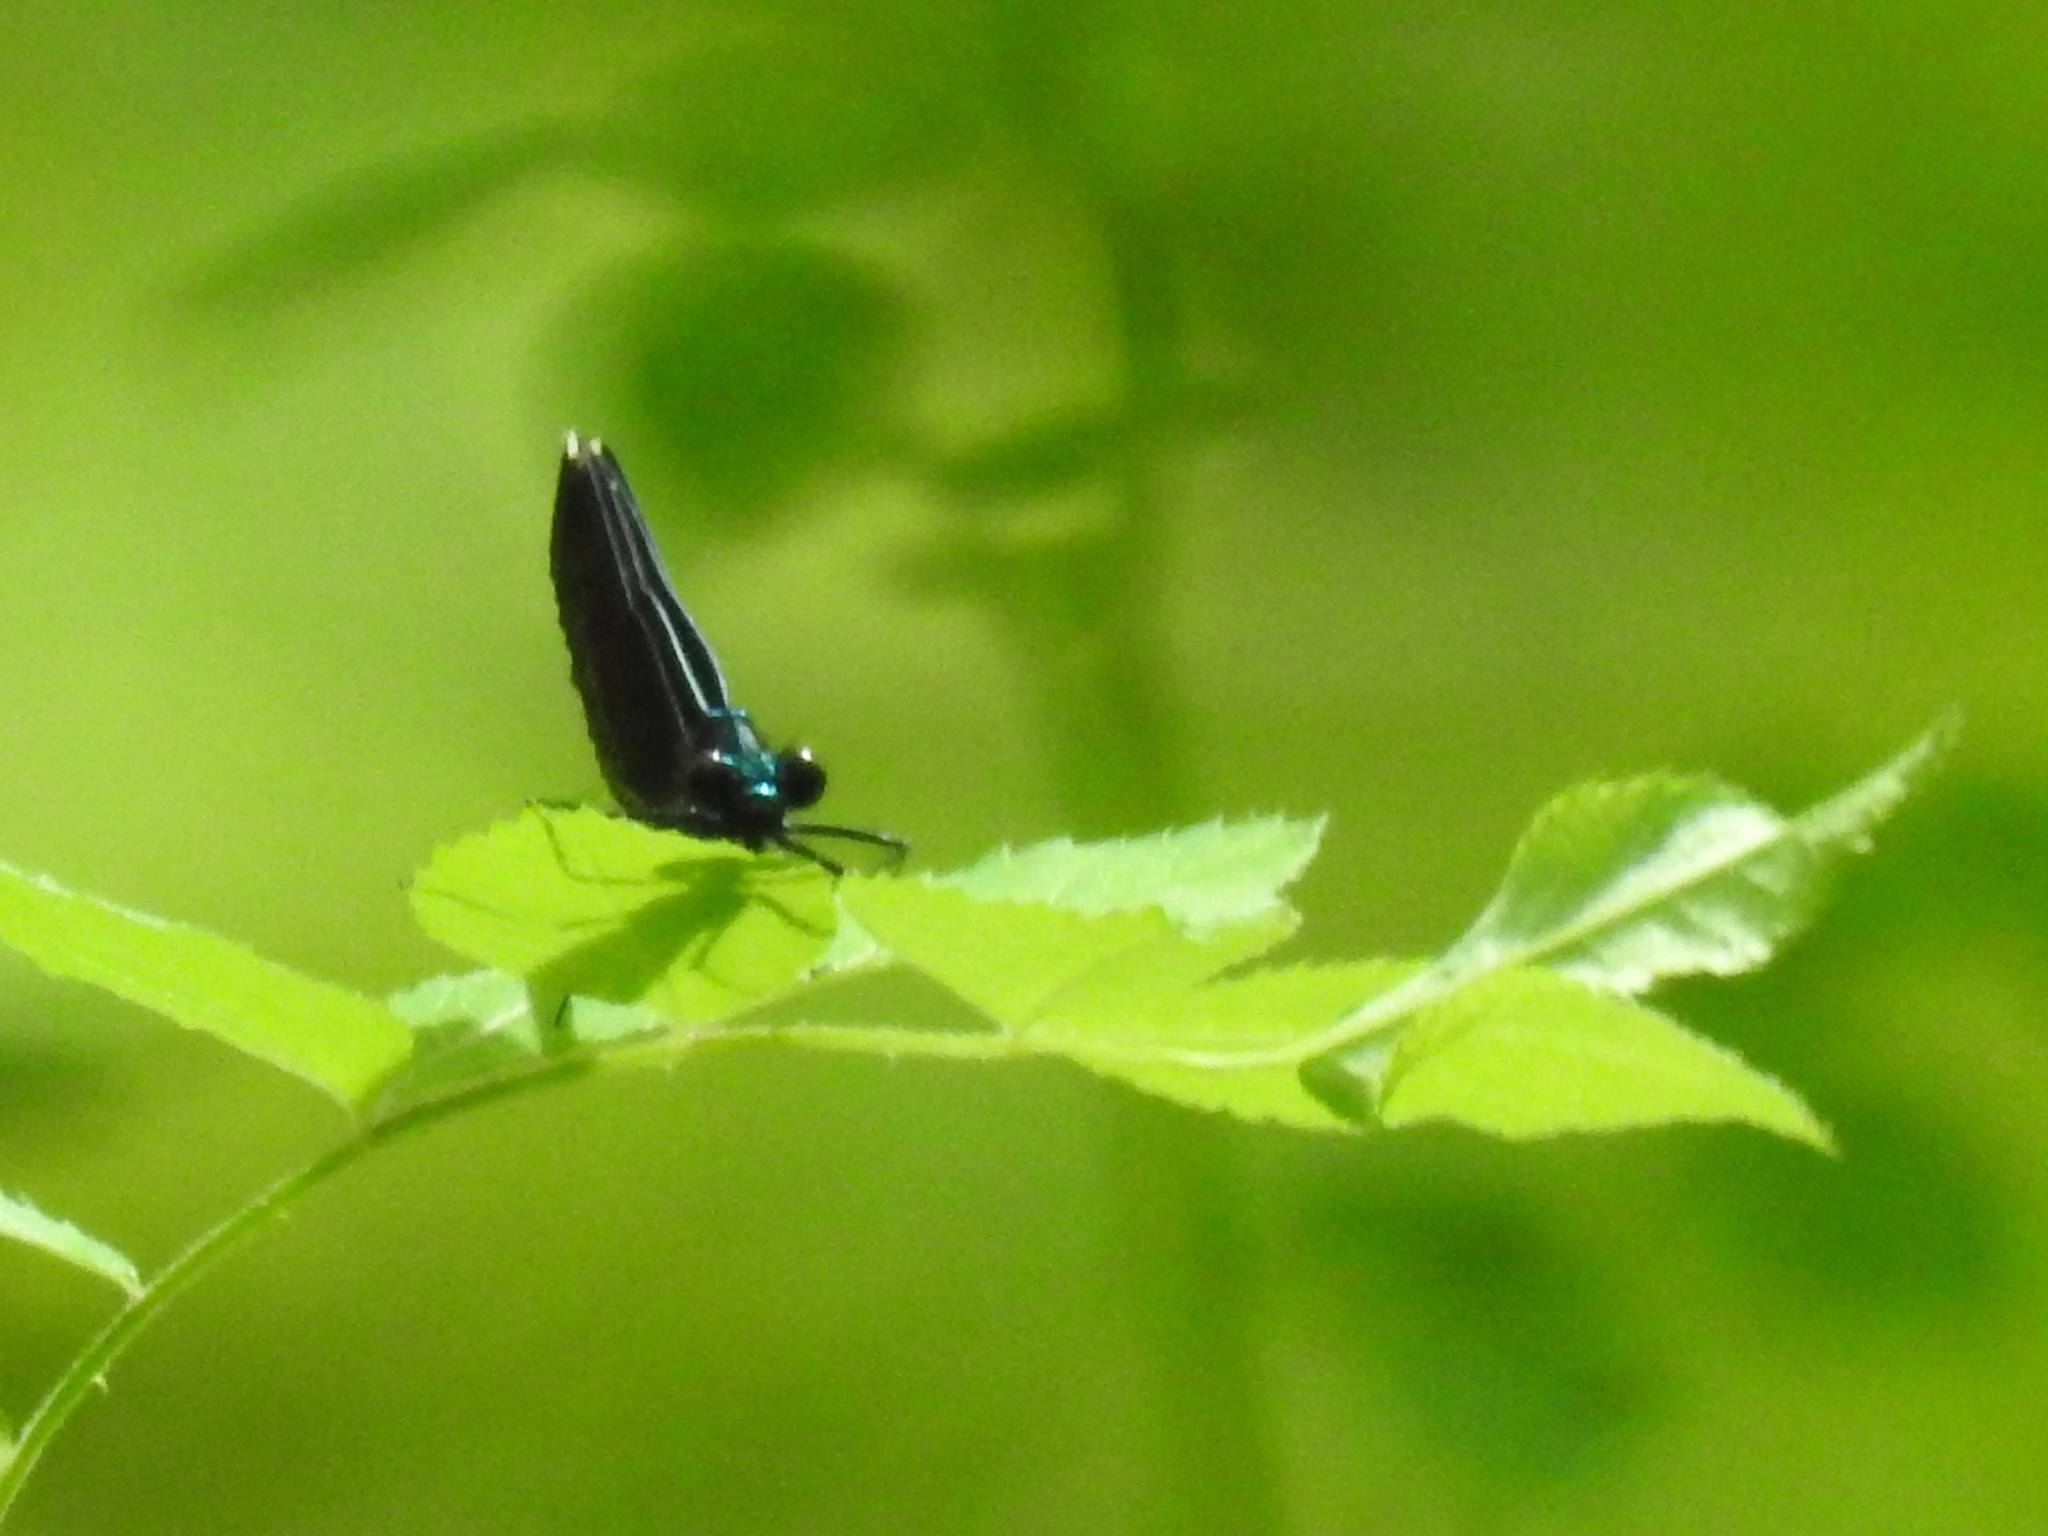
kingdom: Animalia
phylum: Arthropoda
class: Insecta
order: Odonata
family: Calopterygidae
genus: Calopteryx
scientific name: Calopteryx maculata
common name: Ebony jewelwing
